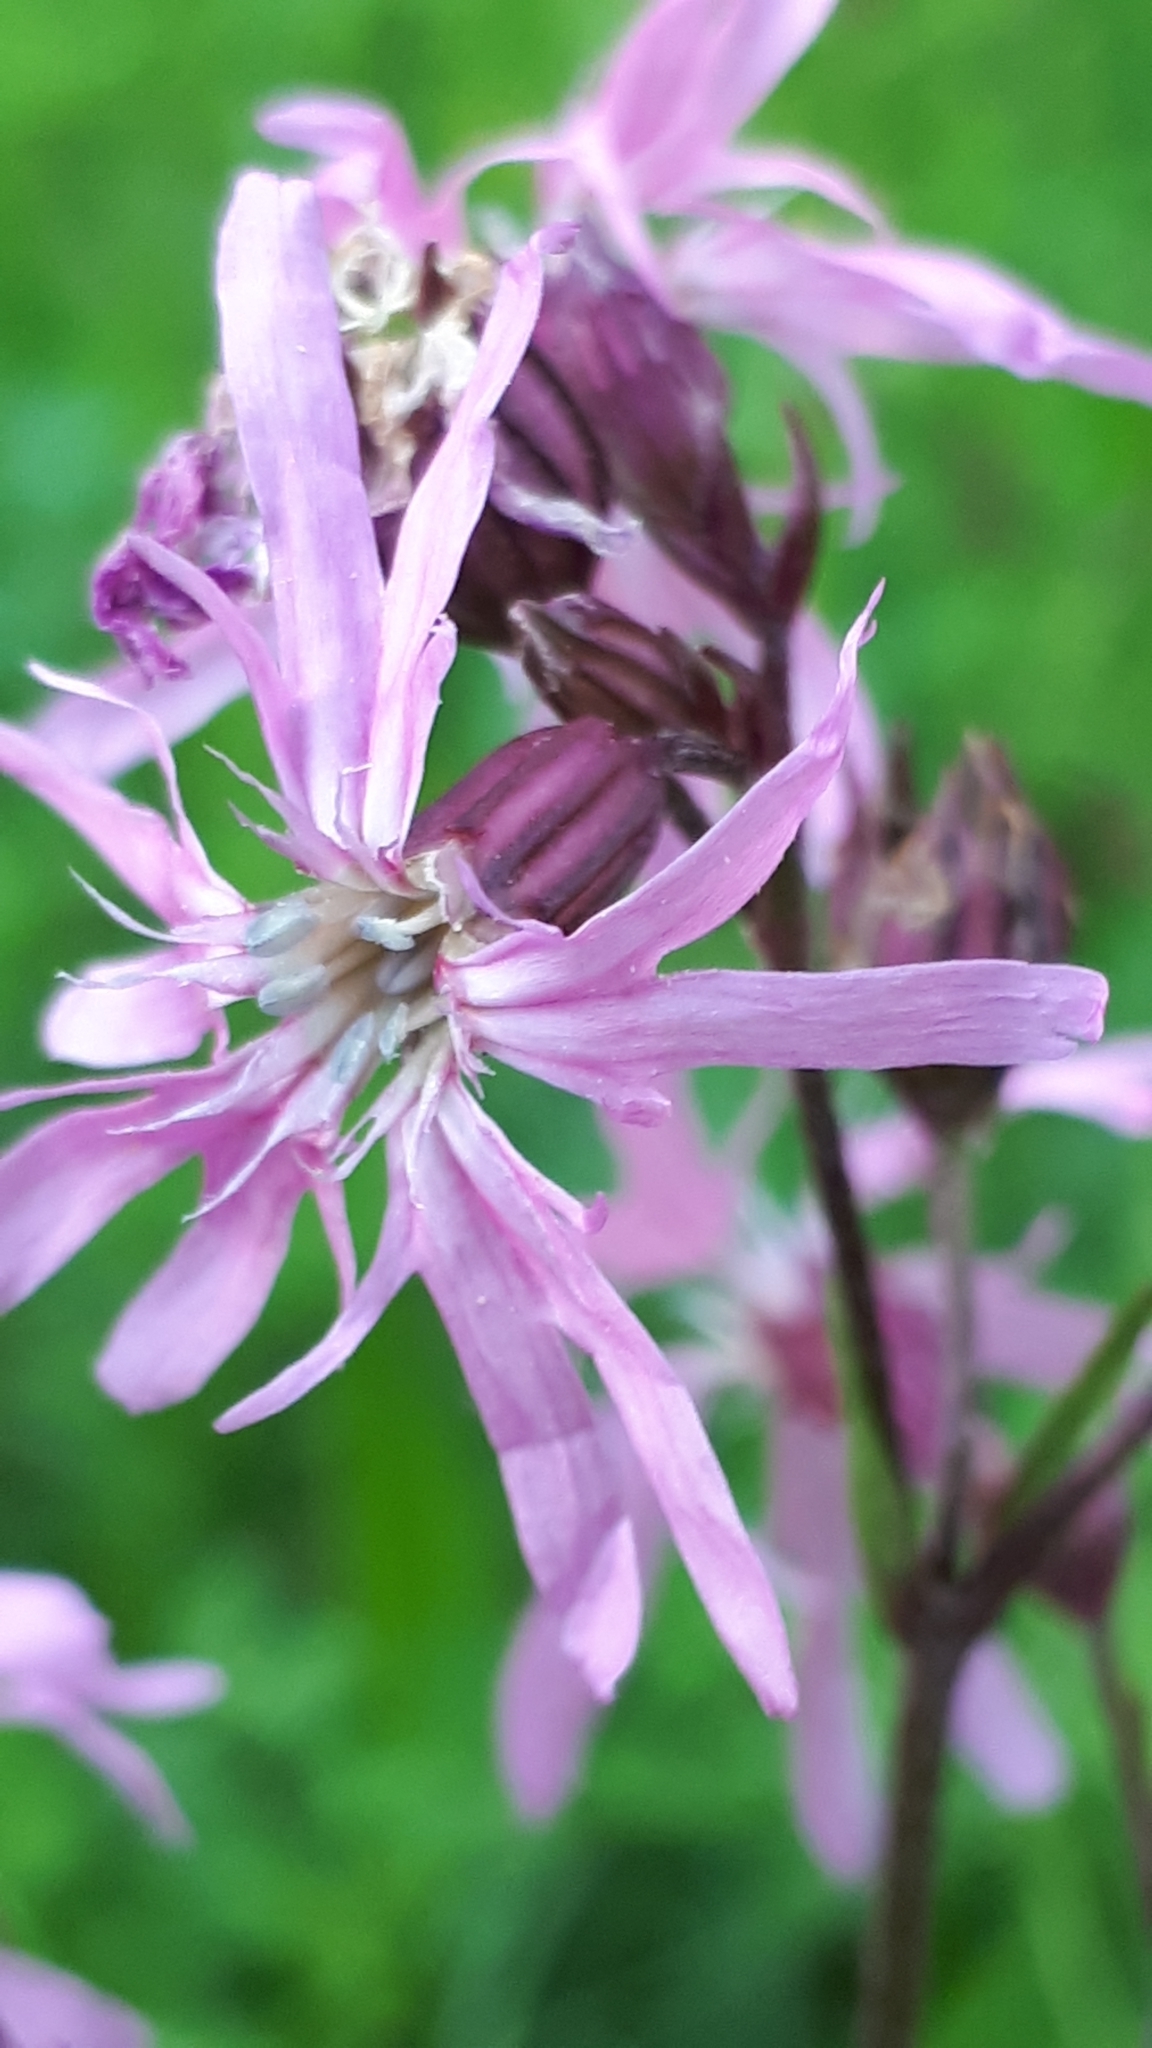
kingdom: Plantae
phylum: Tracheophyta
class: Magnoliopsida
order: Caryophyllales
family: Caryophyllaceae
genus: Silene
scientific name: Silene flos-cuculi
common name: Ragged-robin
